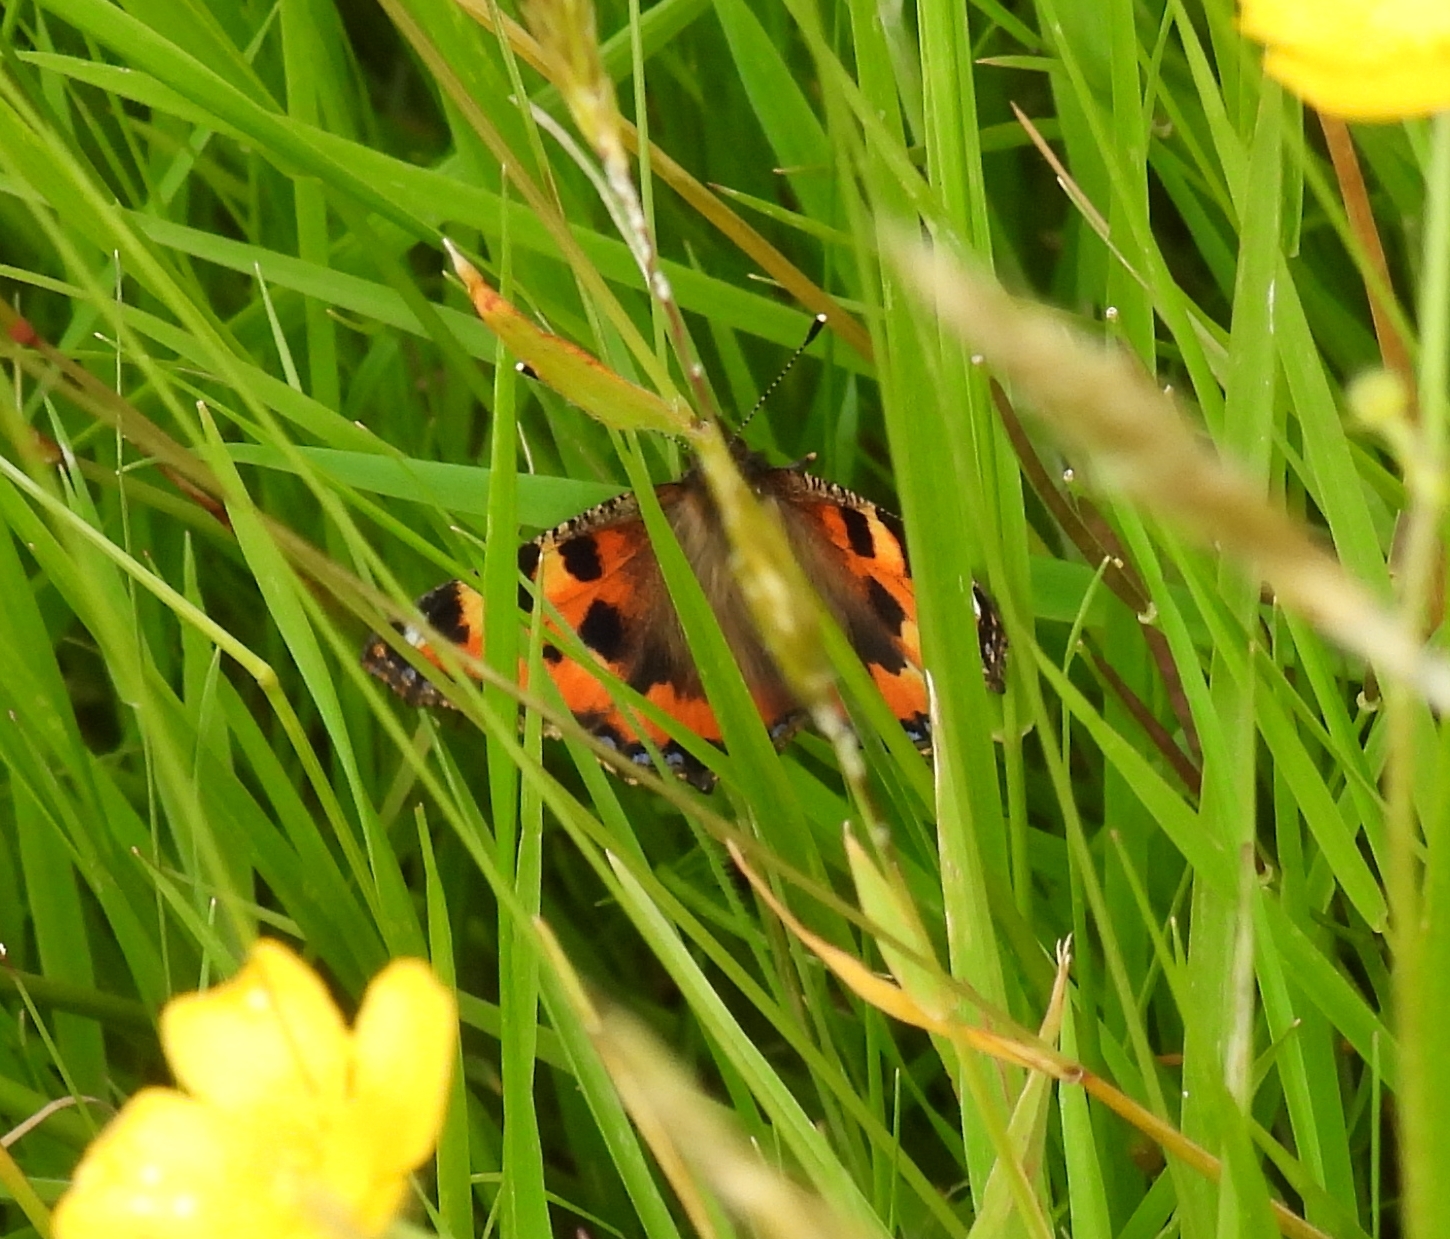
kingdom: Animalia
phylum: Arthropoda
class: Insecta
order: Lepidoptera
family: Nymphalidae
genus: Aglais
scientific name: Aglais urticae
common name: Small tortoiseshell
